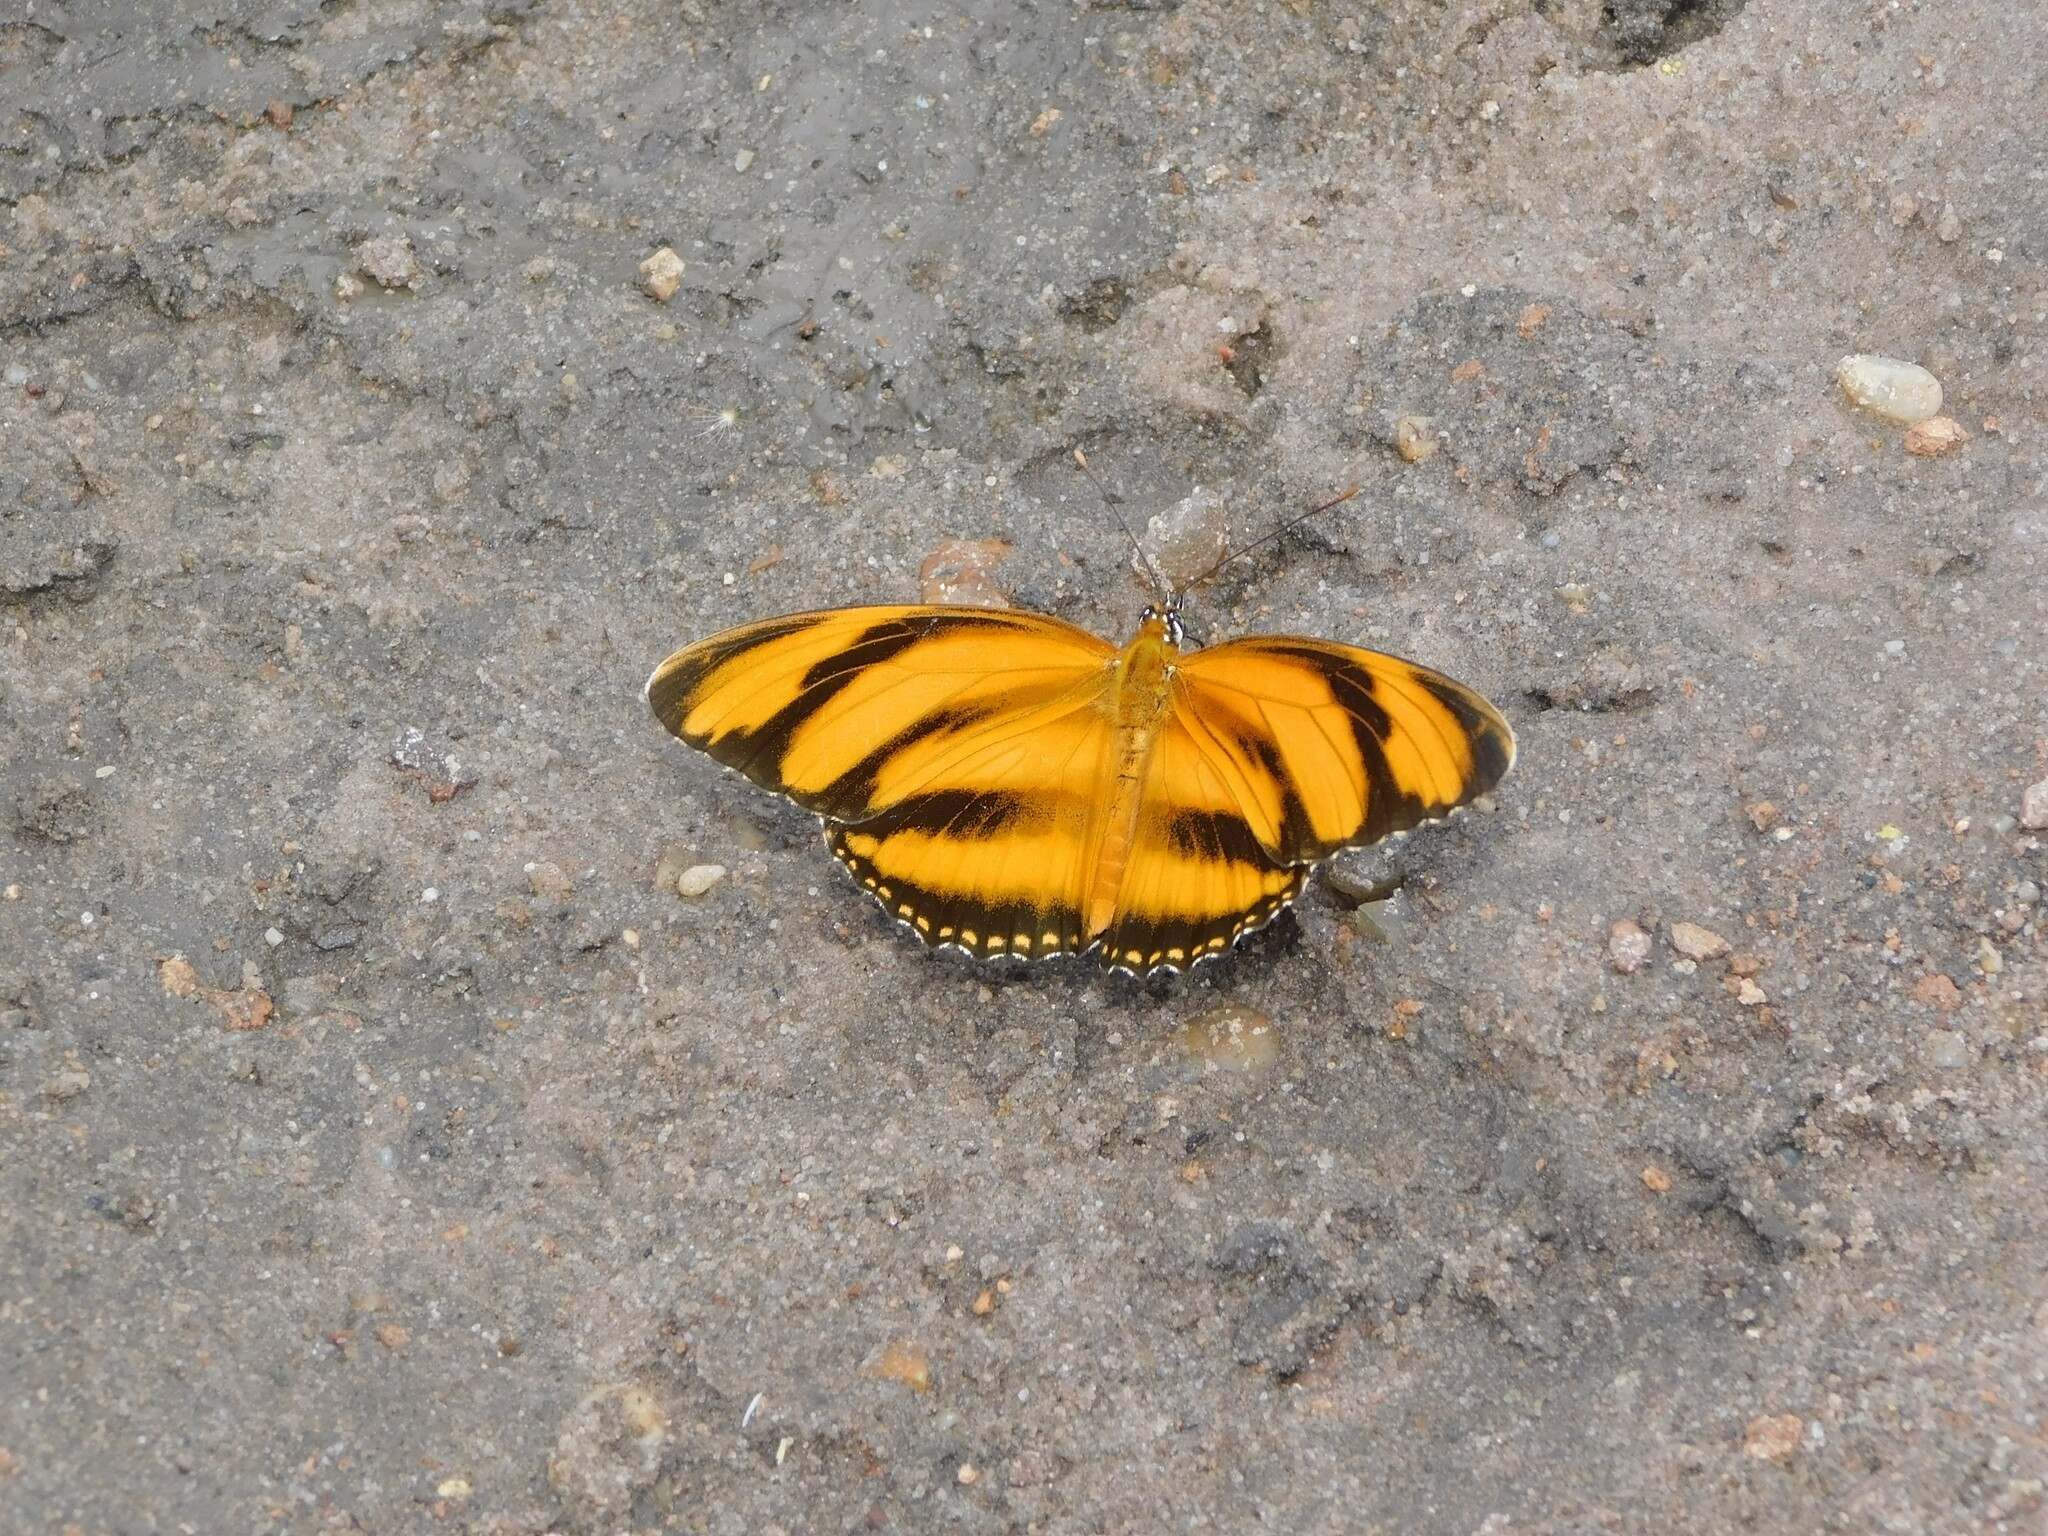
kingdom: Animalia
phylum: Arthropoda
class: Insecta
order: Lepidoptera
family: Nymphalidae
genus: Dryadula
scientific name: Dryadula phaetusa
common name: Banded orange heliconian
